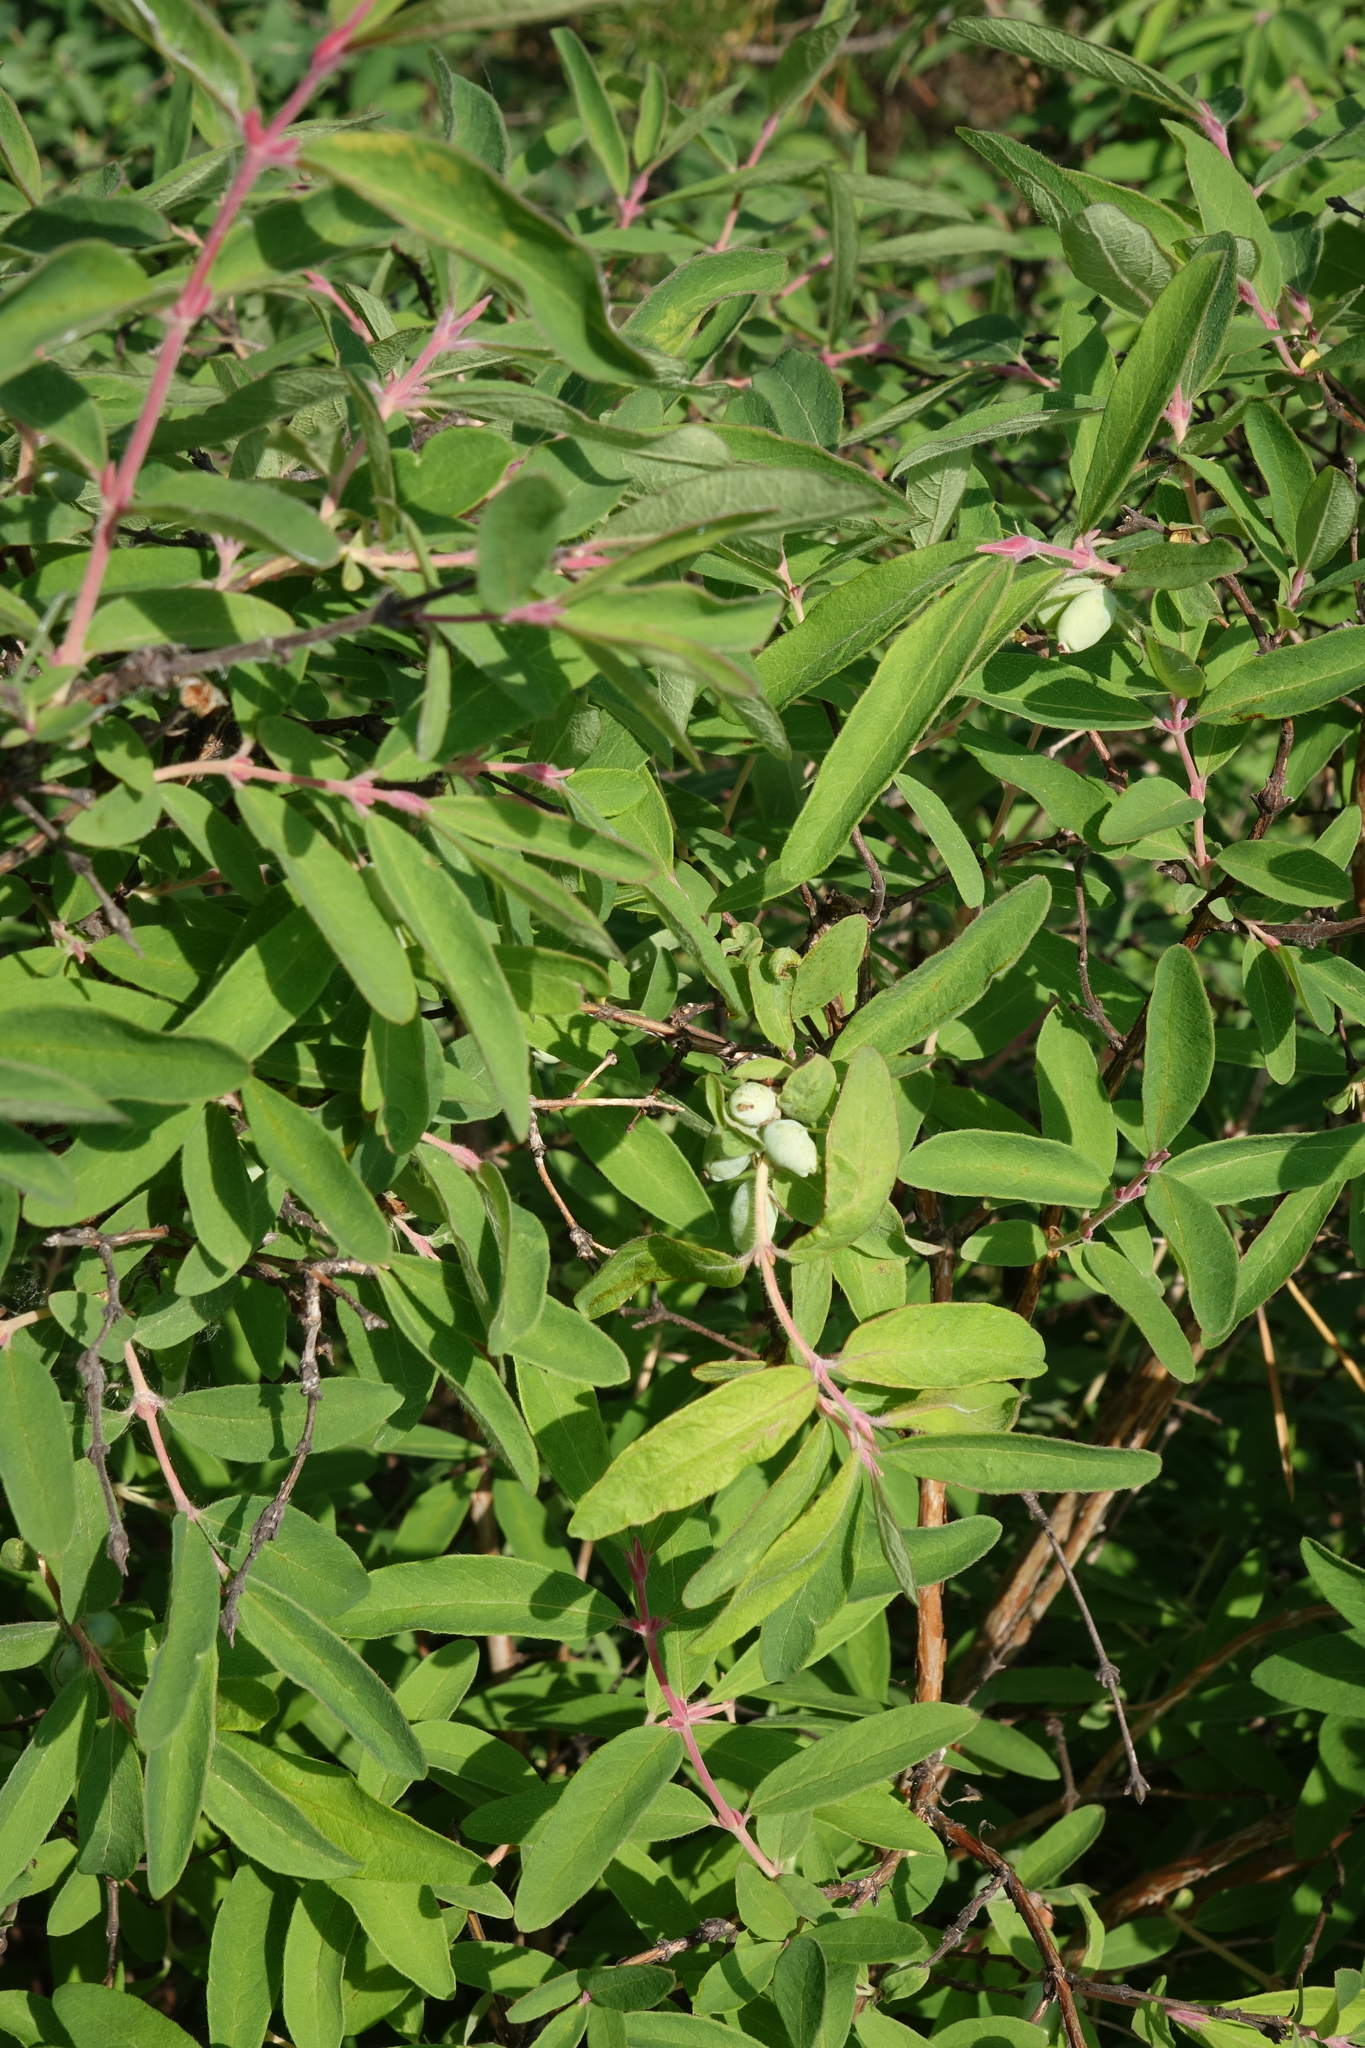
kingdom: Plantae
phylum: Tracheophyta
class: Magnoliopsida
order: Dipsacales
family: Caprifoliaceae
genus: Lonicera
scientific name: Lonicera caerulea
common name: Blue honeysuckle
